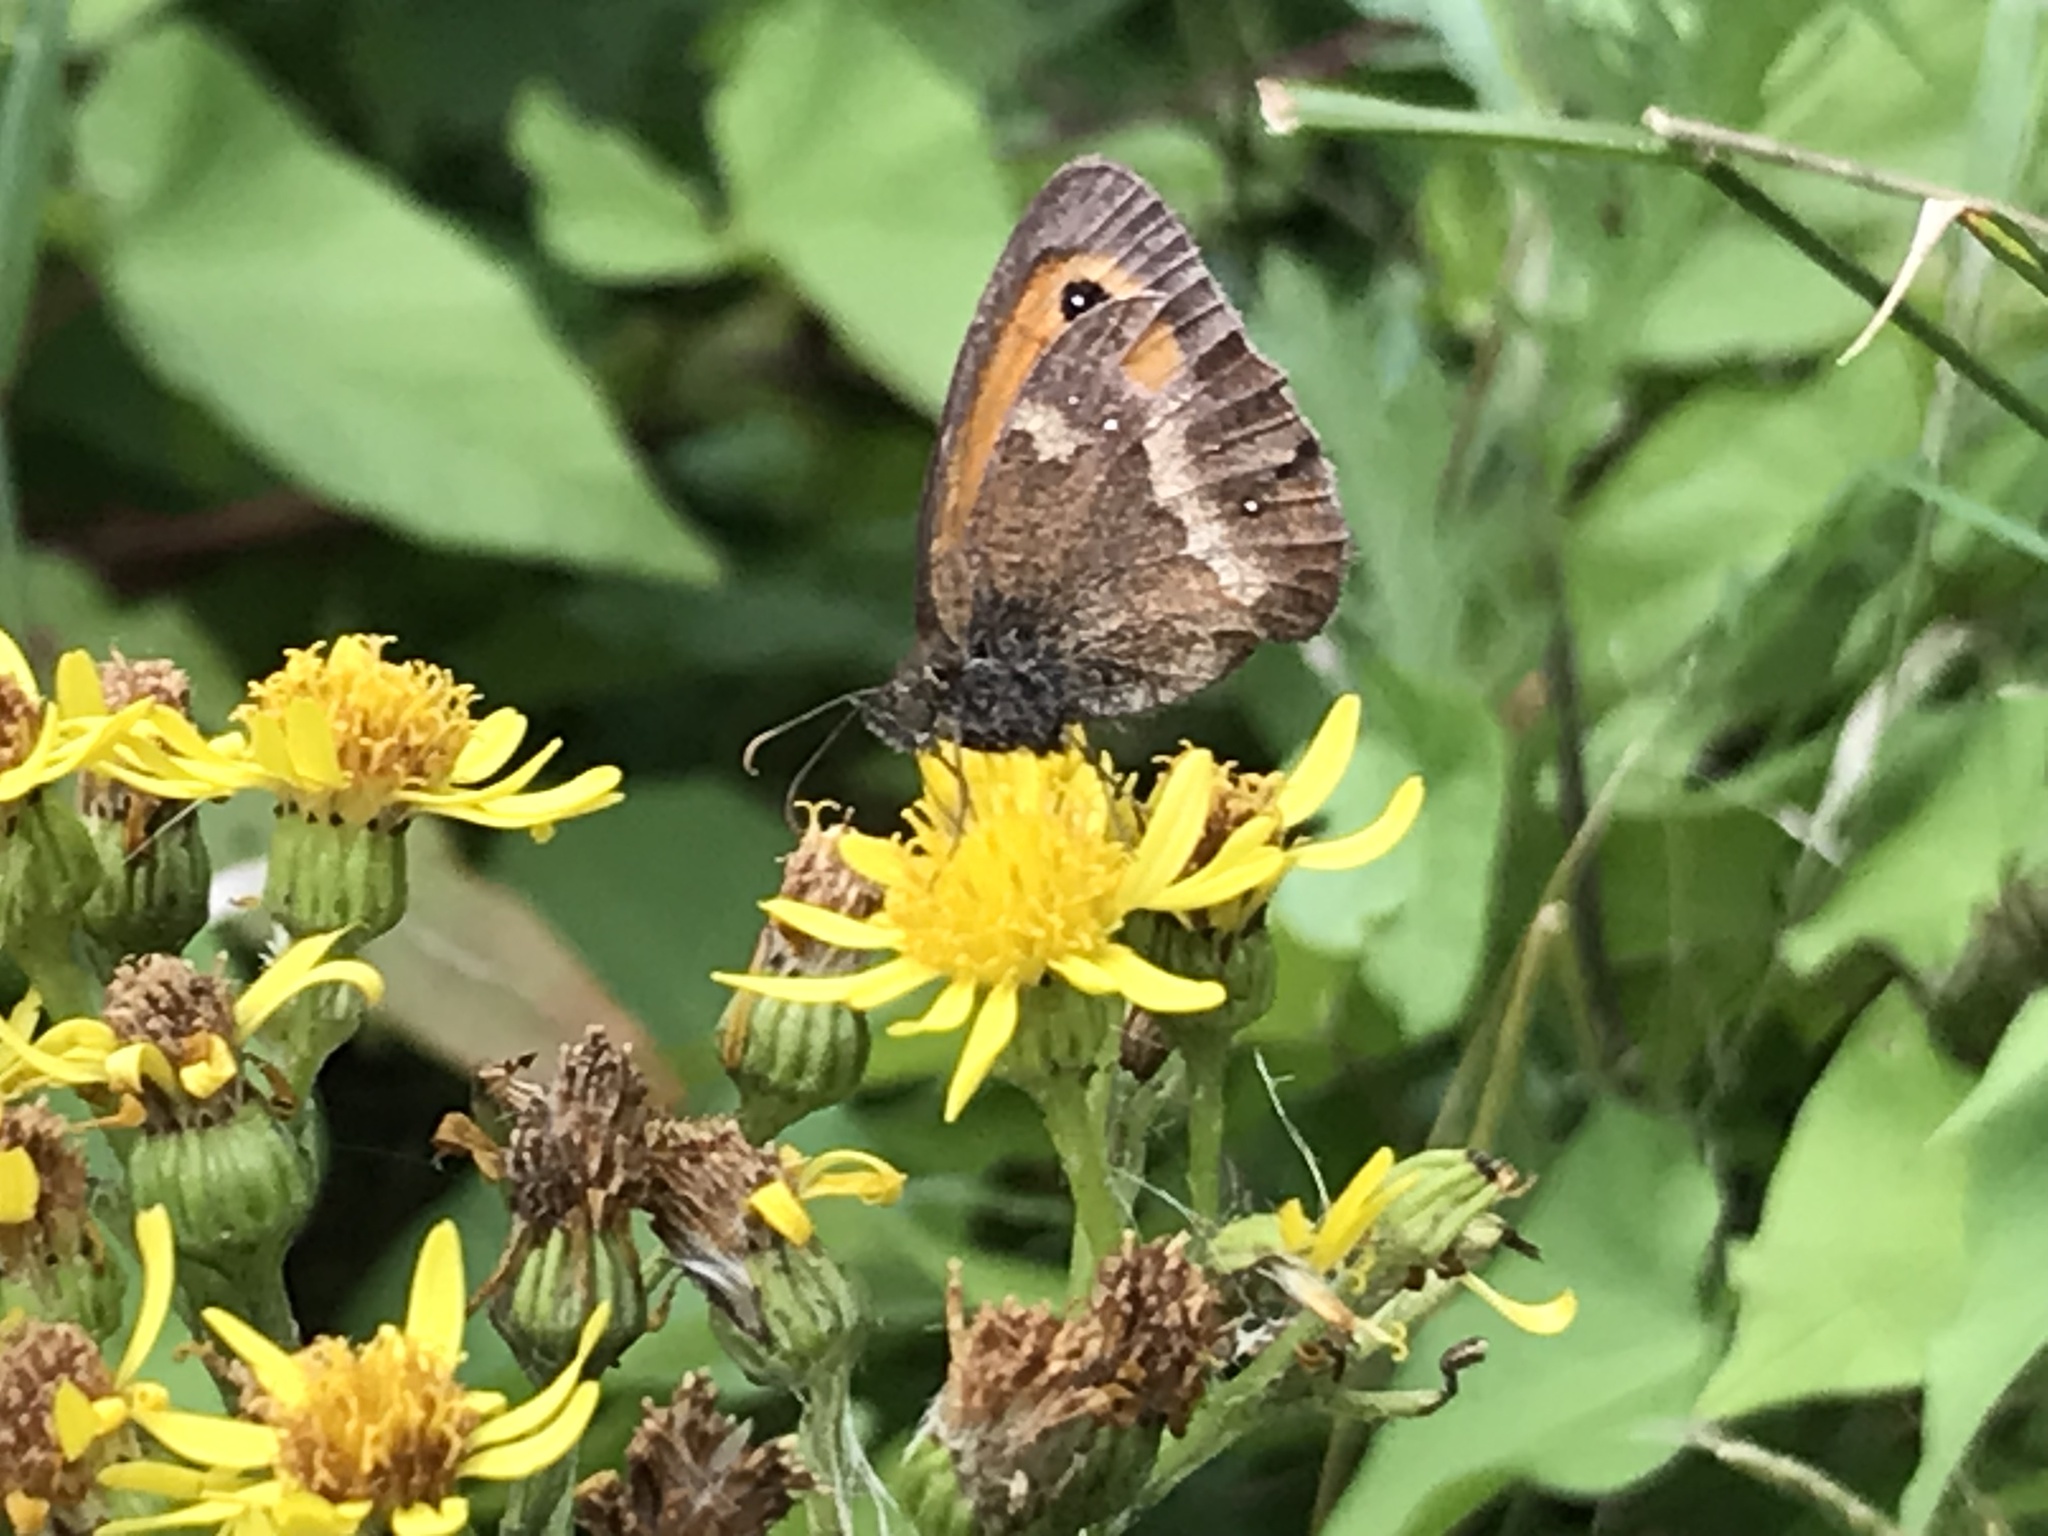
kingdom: Animalia
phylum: Arthropoda
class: Insecta
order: Lepidoptera
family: Nymphalidae
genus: Pyronia
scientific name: Pyronia tithonus
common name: Gatekeeper
